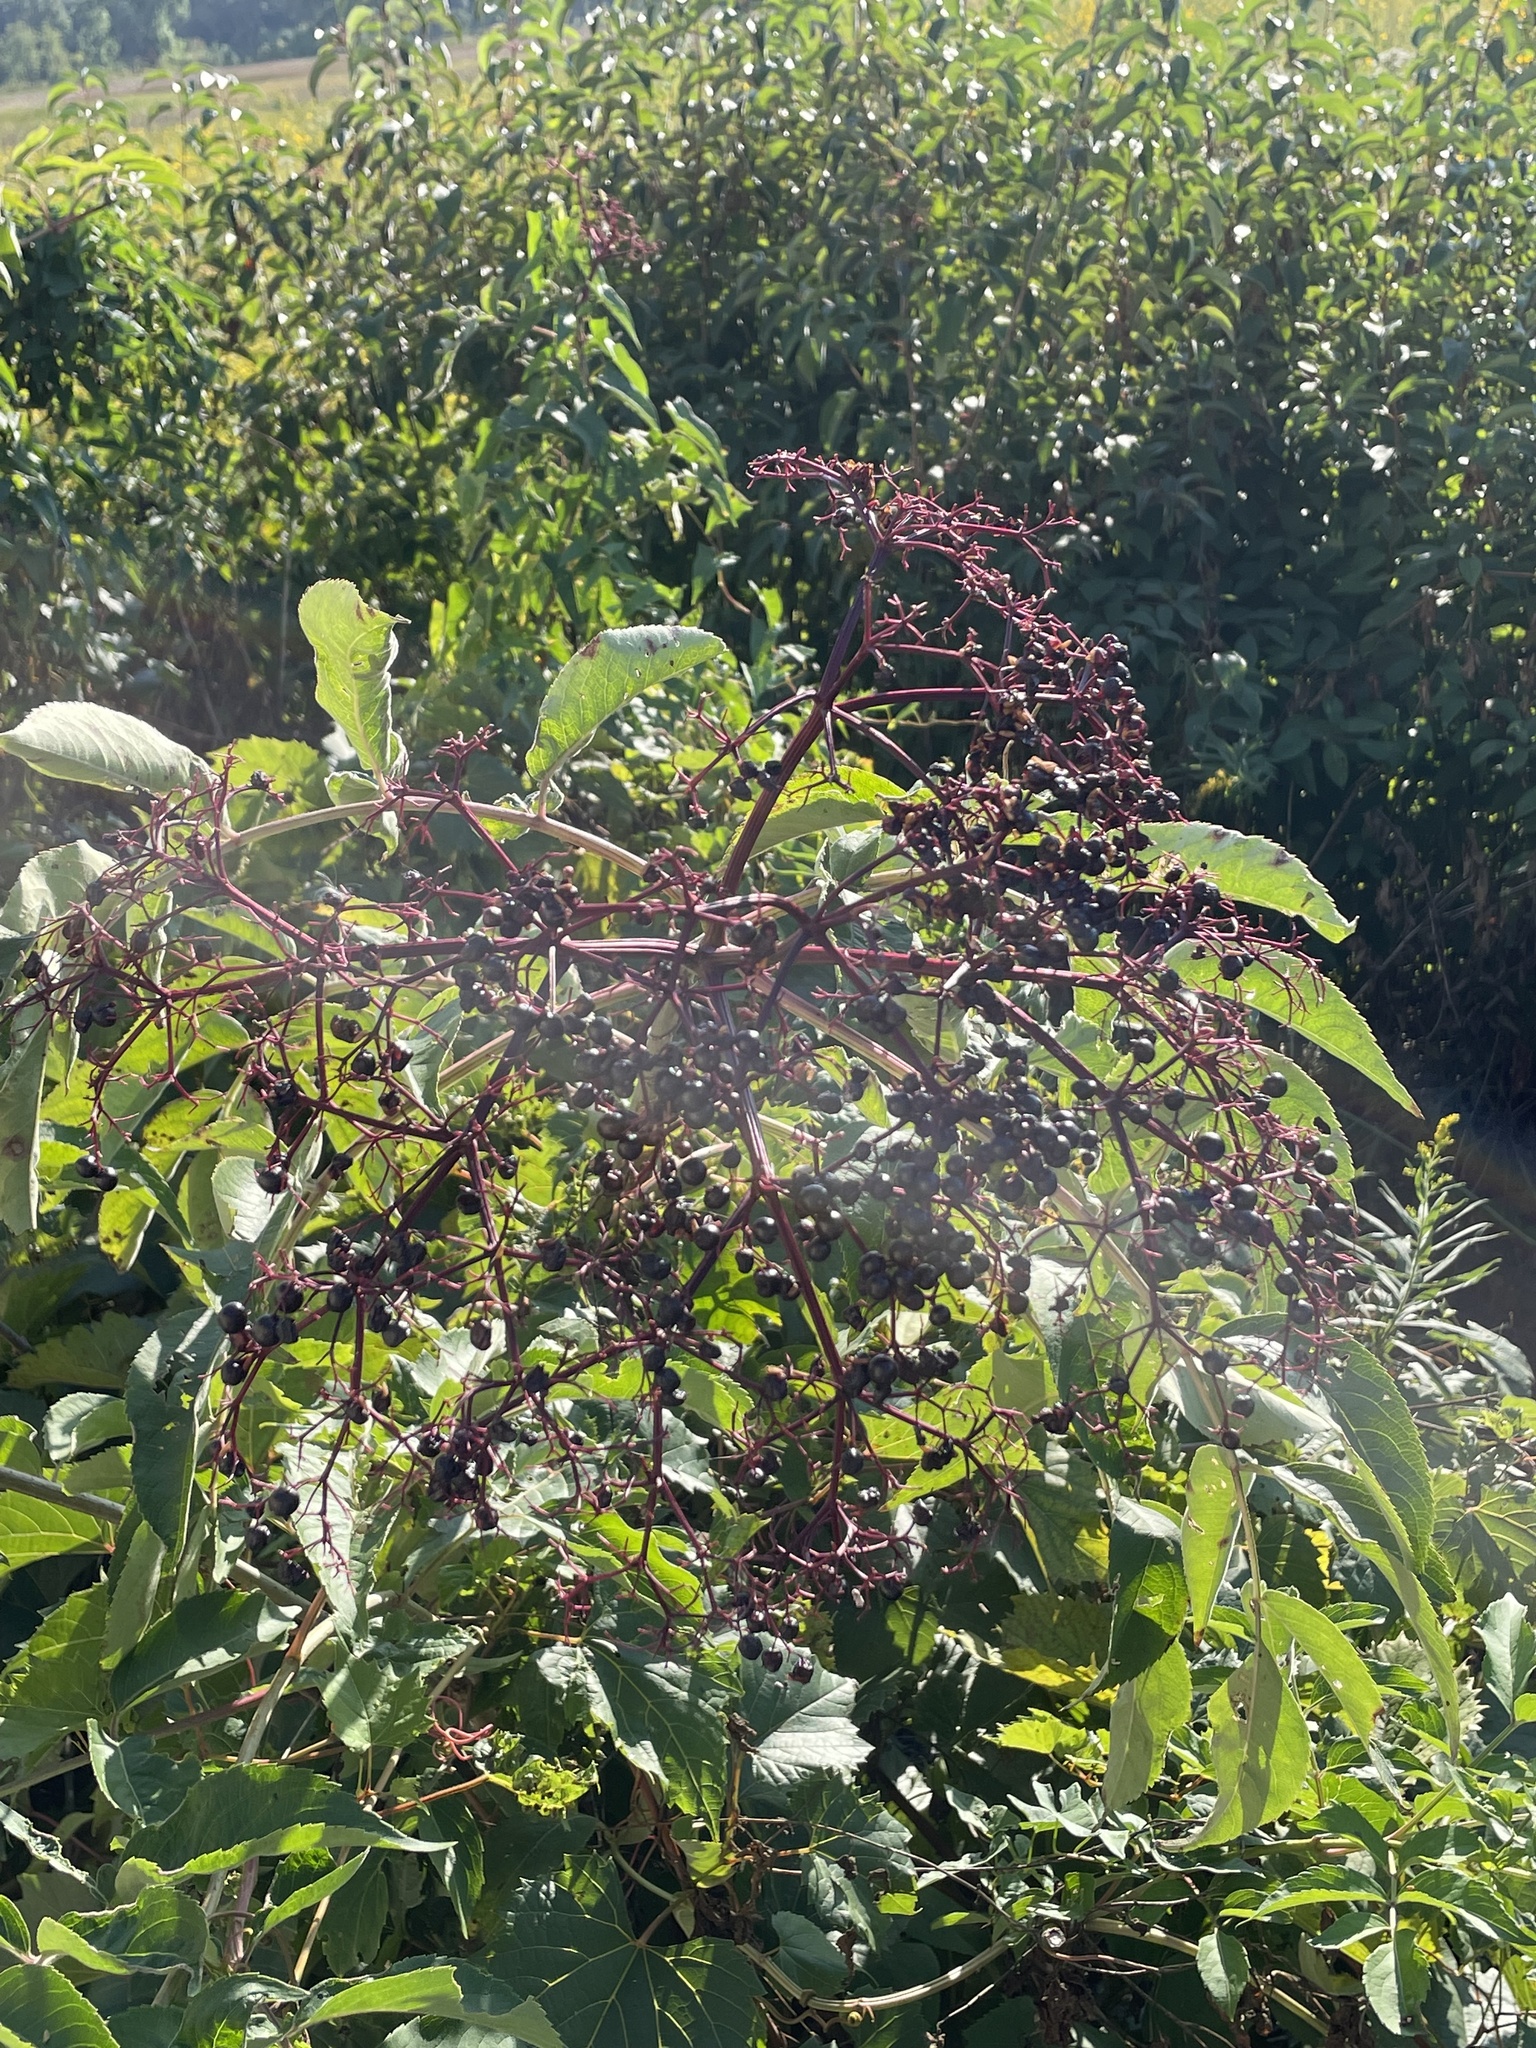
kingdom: Plantae
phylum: Tracheophyta
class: Magnoliopsida
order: Dipsacales
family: Viburnaceae
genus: Sambucus
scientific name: Sambucus canadensis
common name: American elder
